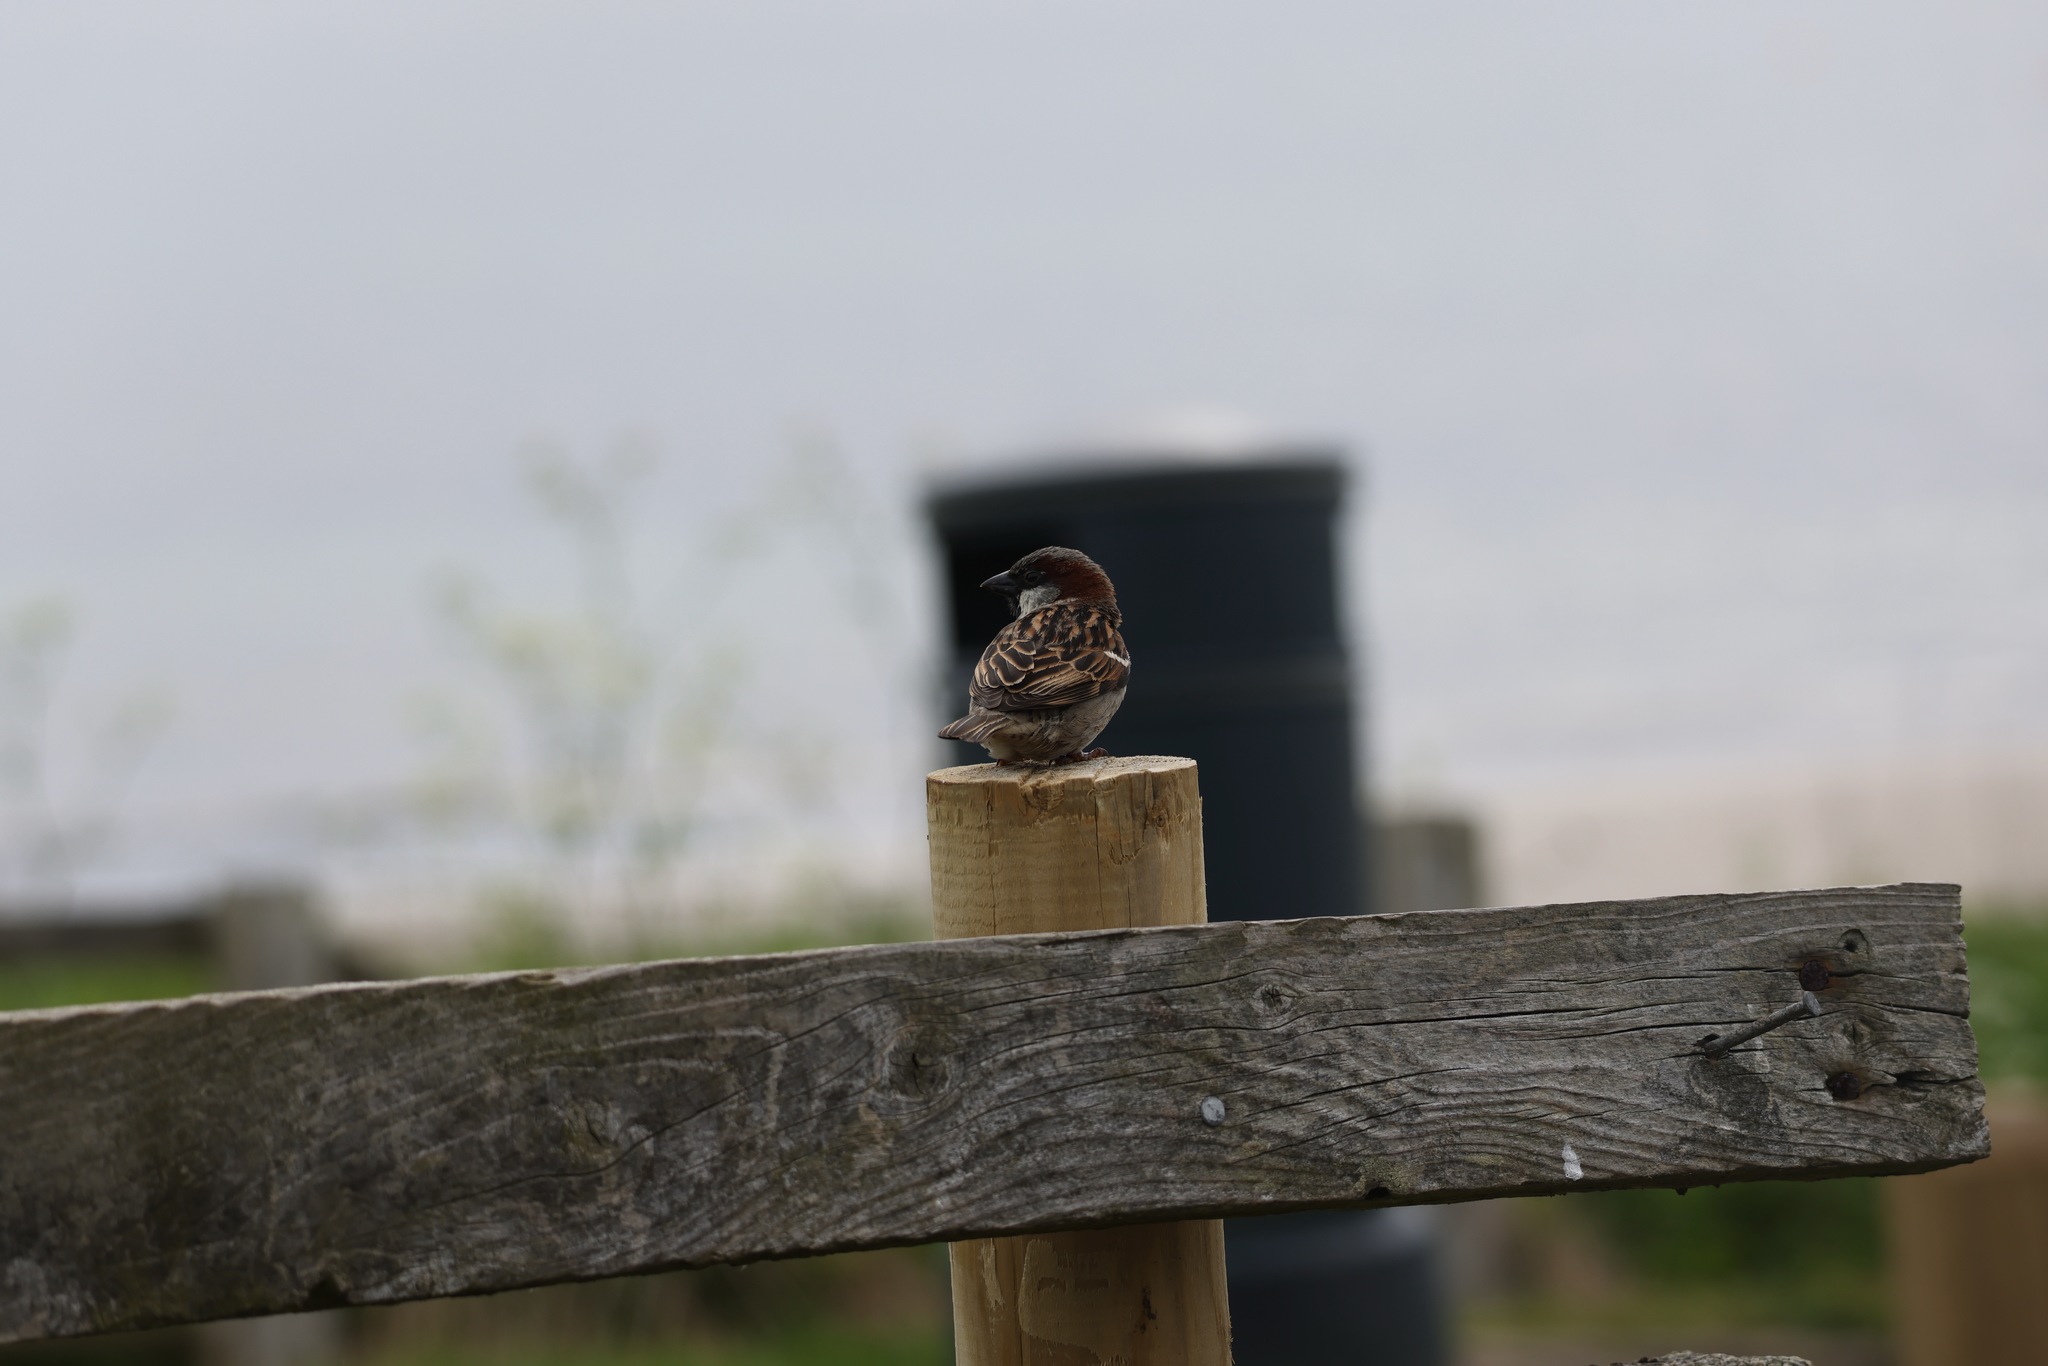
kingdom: Animalia
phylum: Chordata
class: Aves
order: Passeriformes
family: Passeridae
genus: Passer
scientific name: Passer domesticus
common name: House sparrow
